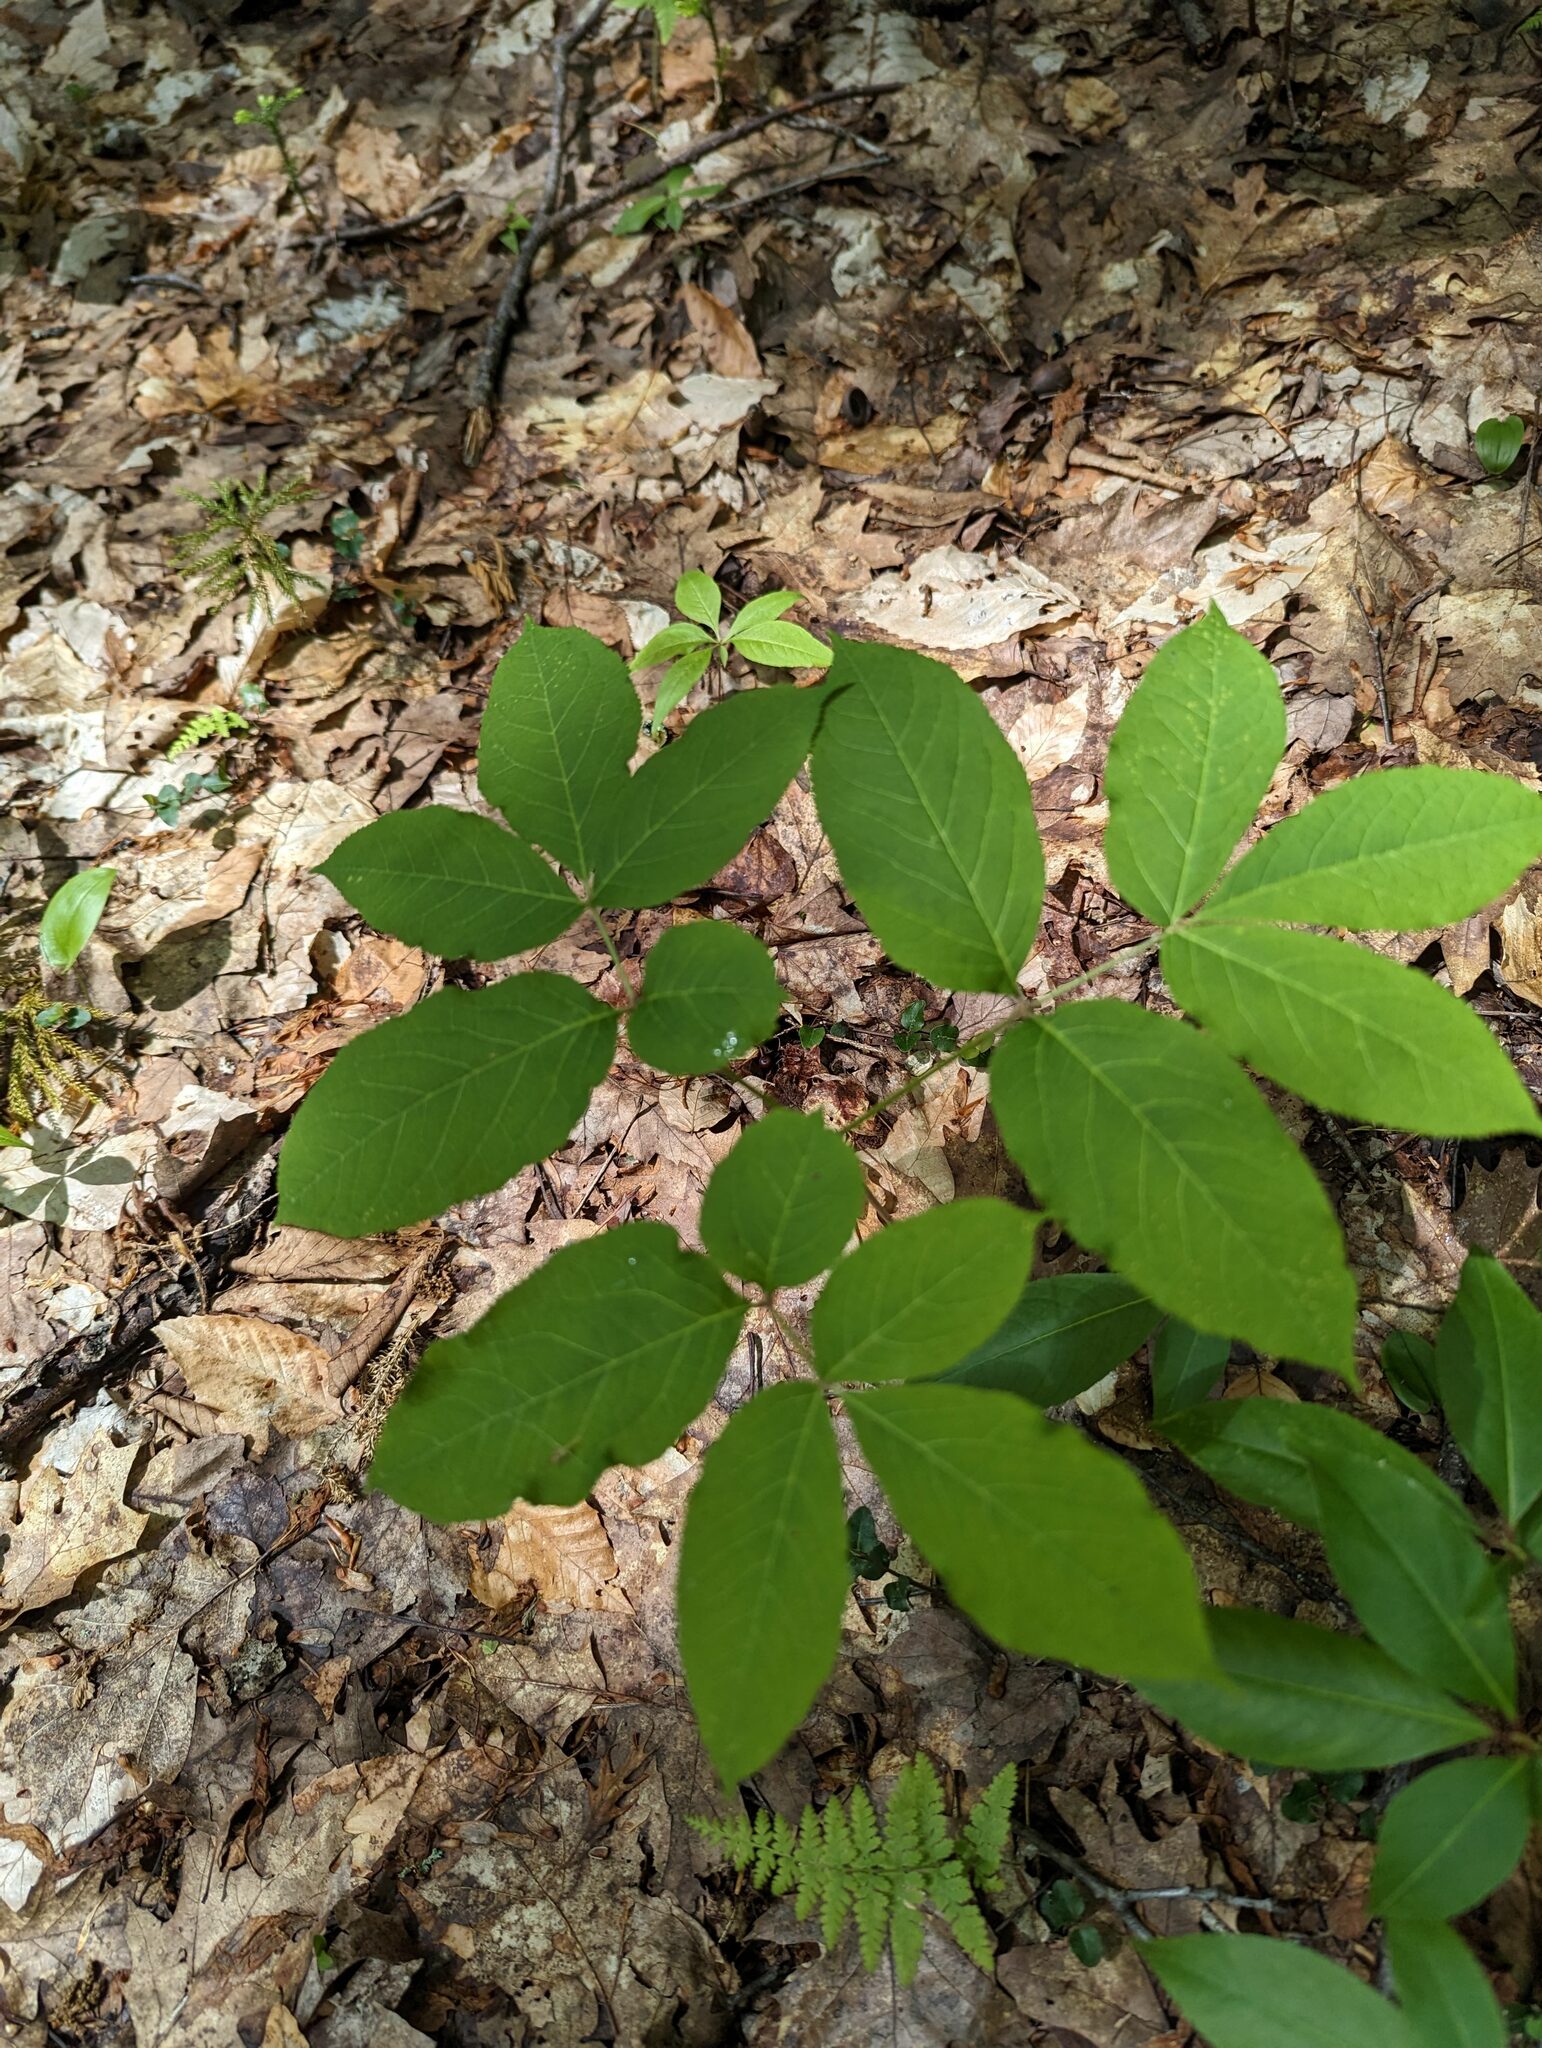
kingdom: Plantae
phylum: Tracheophyta
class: Magnoliopsida
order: Apiales
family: Araliaceae
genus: Aralia
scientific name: Aralia nudicaulis
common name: Wild sarsaparilla
